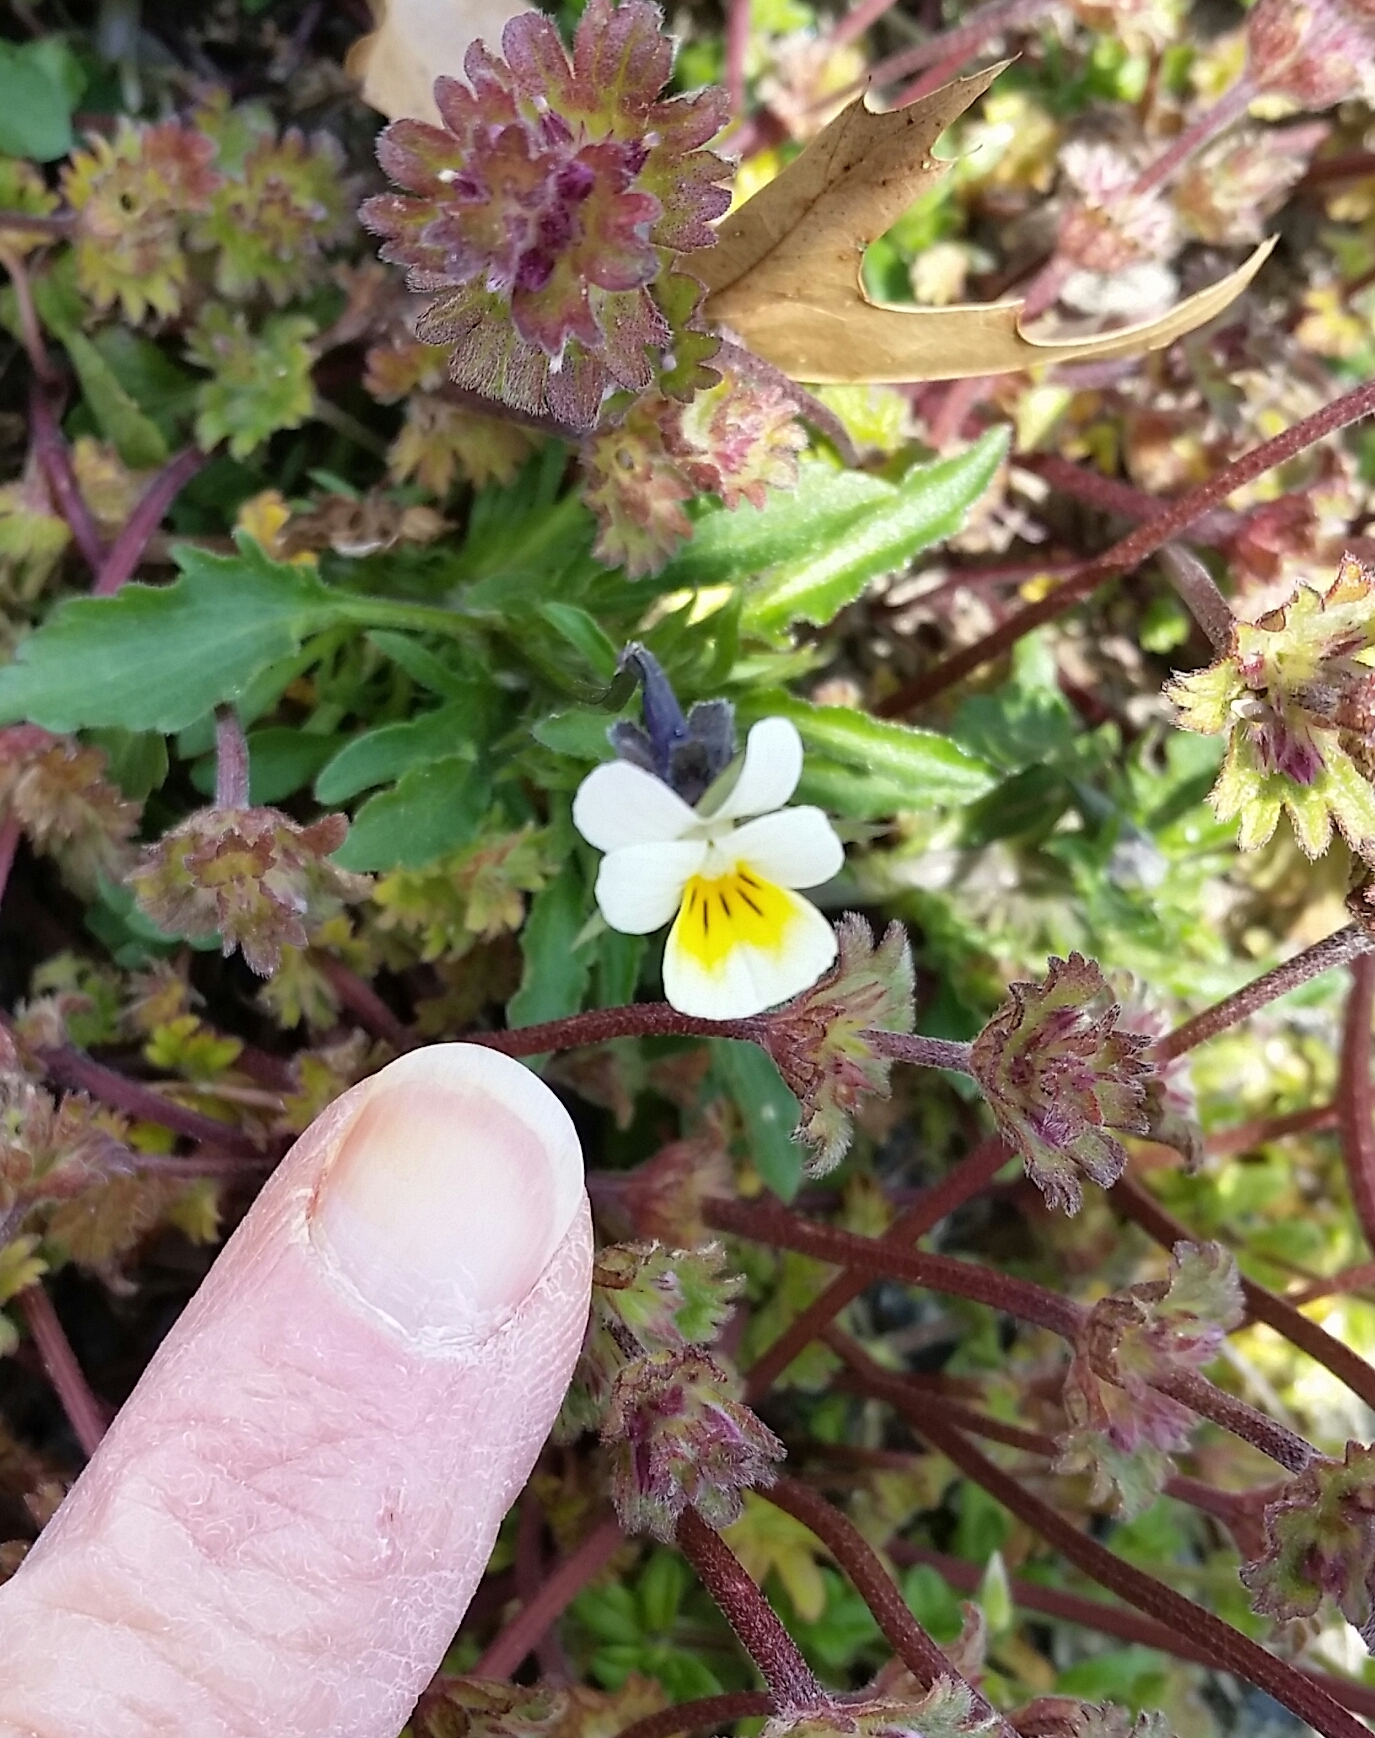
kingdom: Plantae
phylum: Tracheophyta
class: Magnoliopsida
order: Malpighiales
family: Violaceae
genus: Viola
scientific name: Viola arvensis
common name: Field pansy
